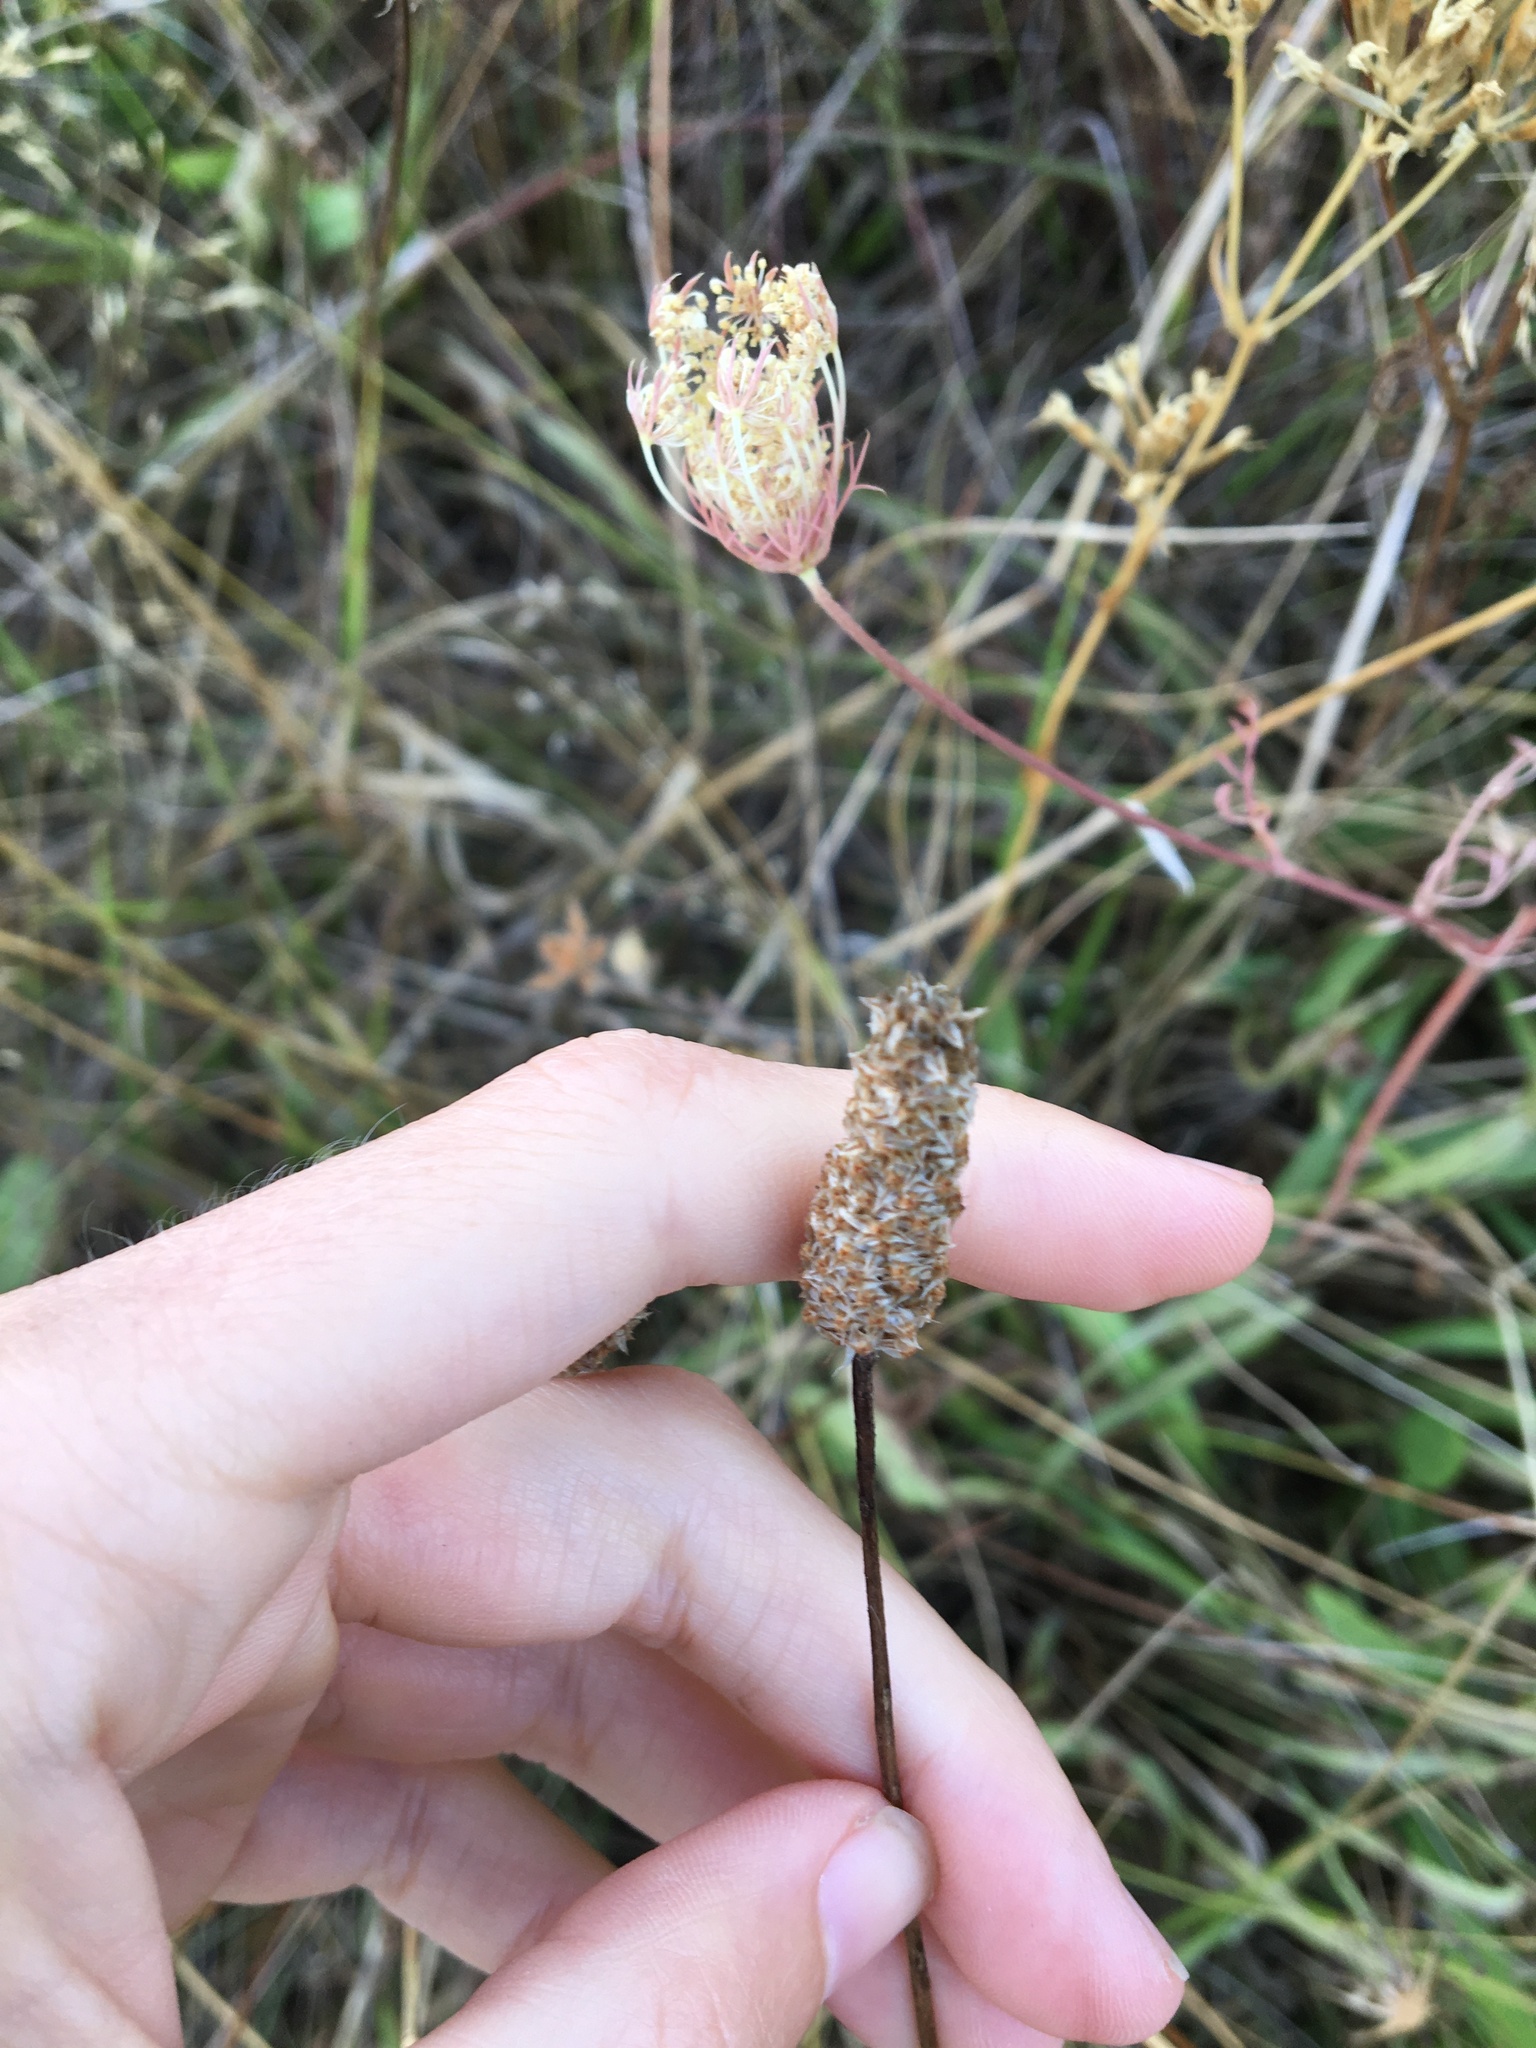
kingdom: Plantae
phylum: Tracheophyta
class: Magnoliopsida
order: Lamiales
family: Plantaginaceae
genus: Plantago
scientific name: Plantago lanceolata
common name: Ribwort plantain
